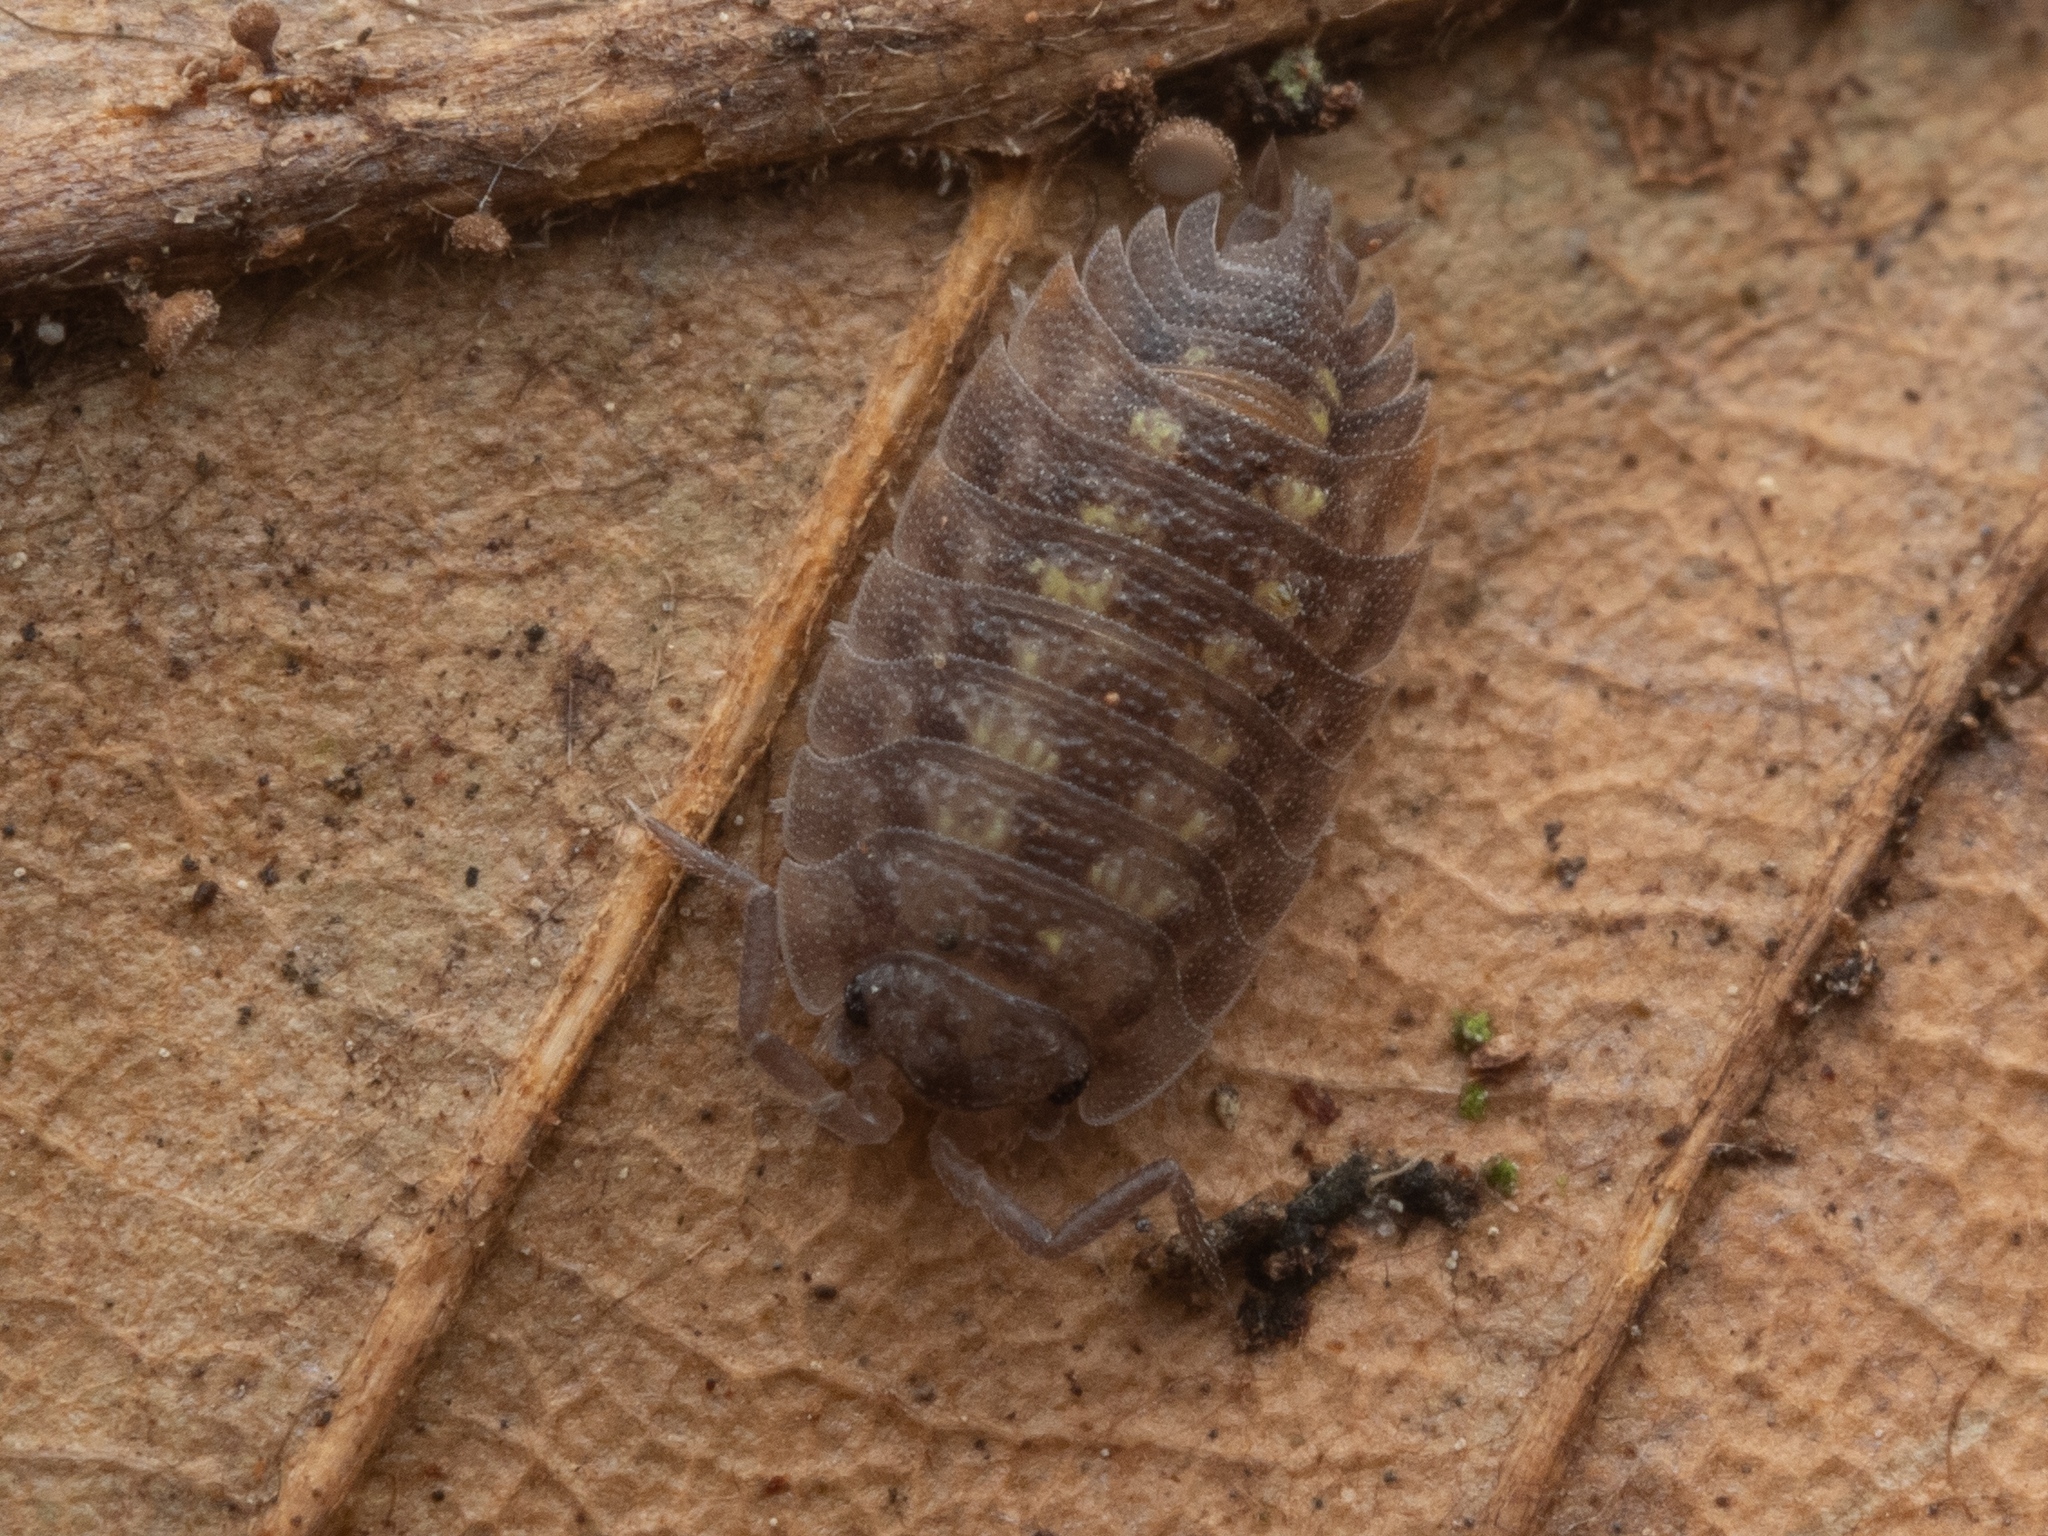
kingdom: Animalia
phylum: Arthropoda
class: Malacostraca
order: Isopoda
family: Oniscidae
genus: Oniscus
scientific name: Oniscus asellus
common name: Common shiny woodlouse
